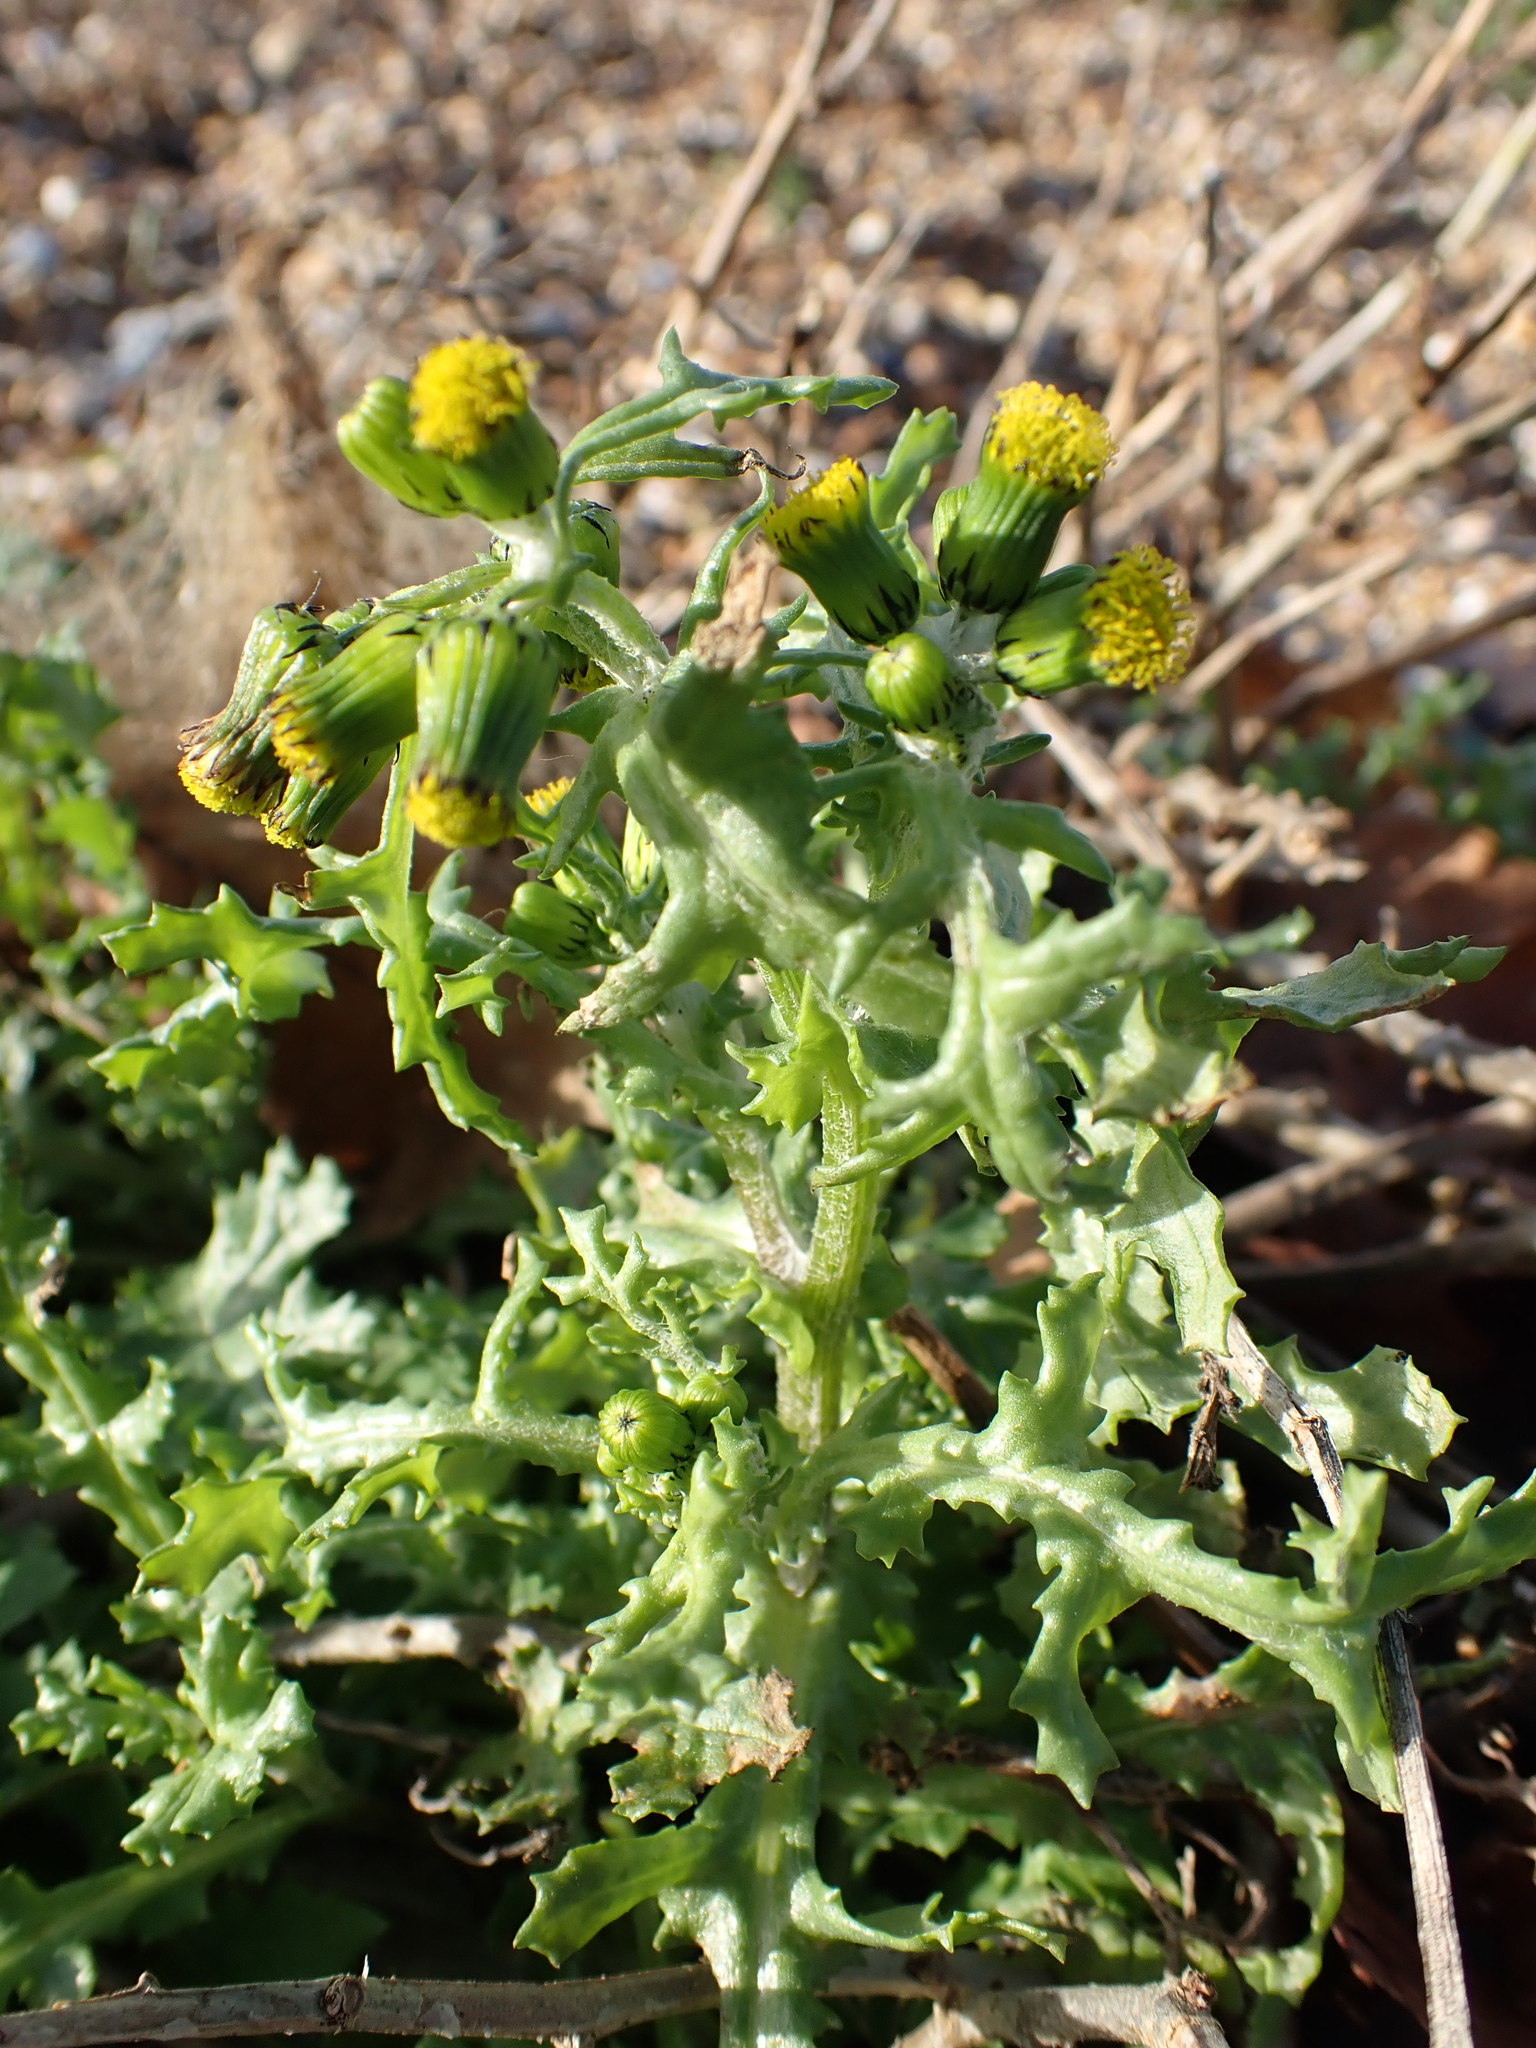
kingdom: Plantae
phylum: Tracheophyta
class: Magnoliopsida
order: Asterales
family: Asteraceae
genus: Senecio
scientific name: Senecio vulgaris
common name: Old-man-in-the-spring
